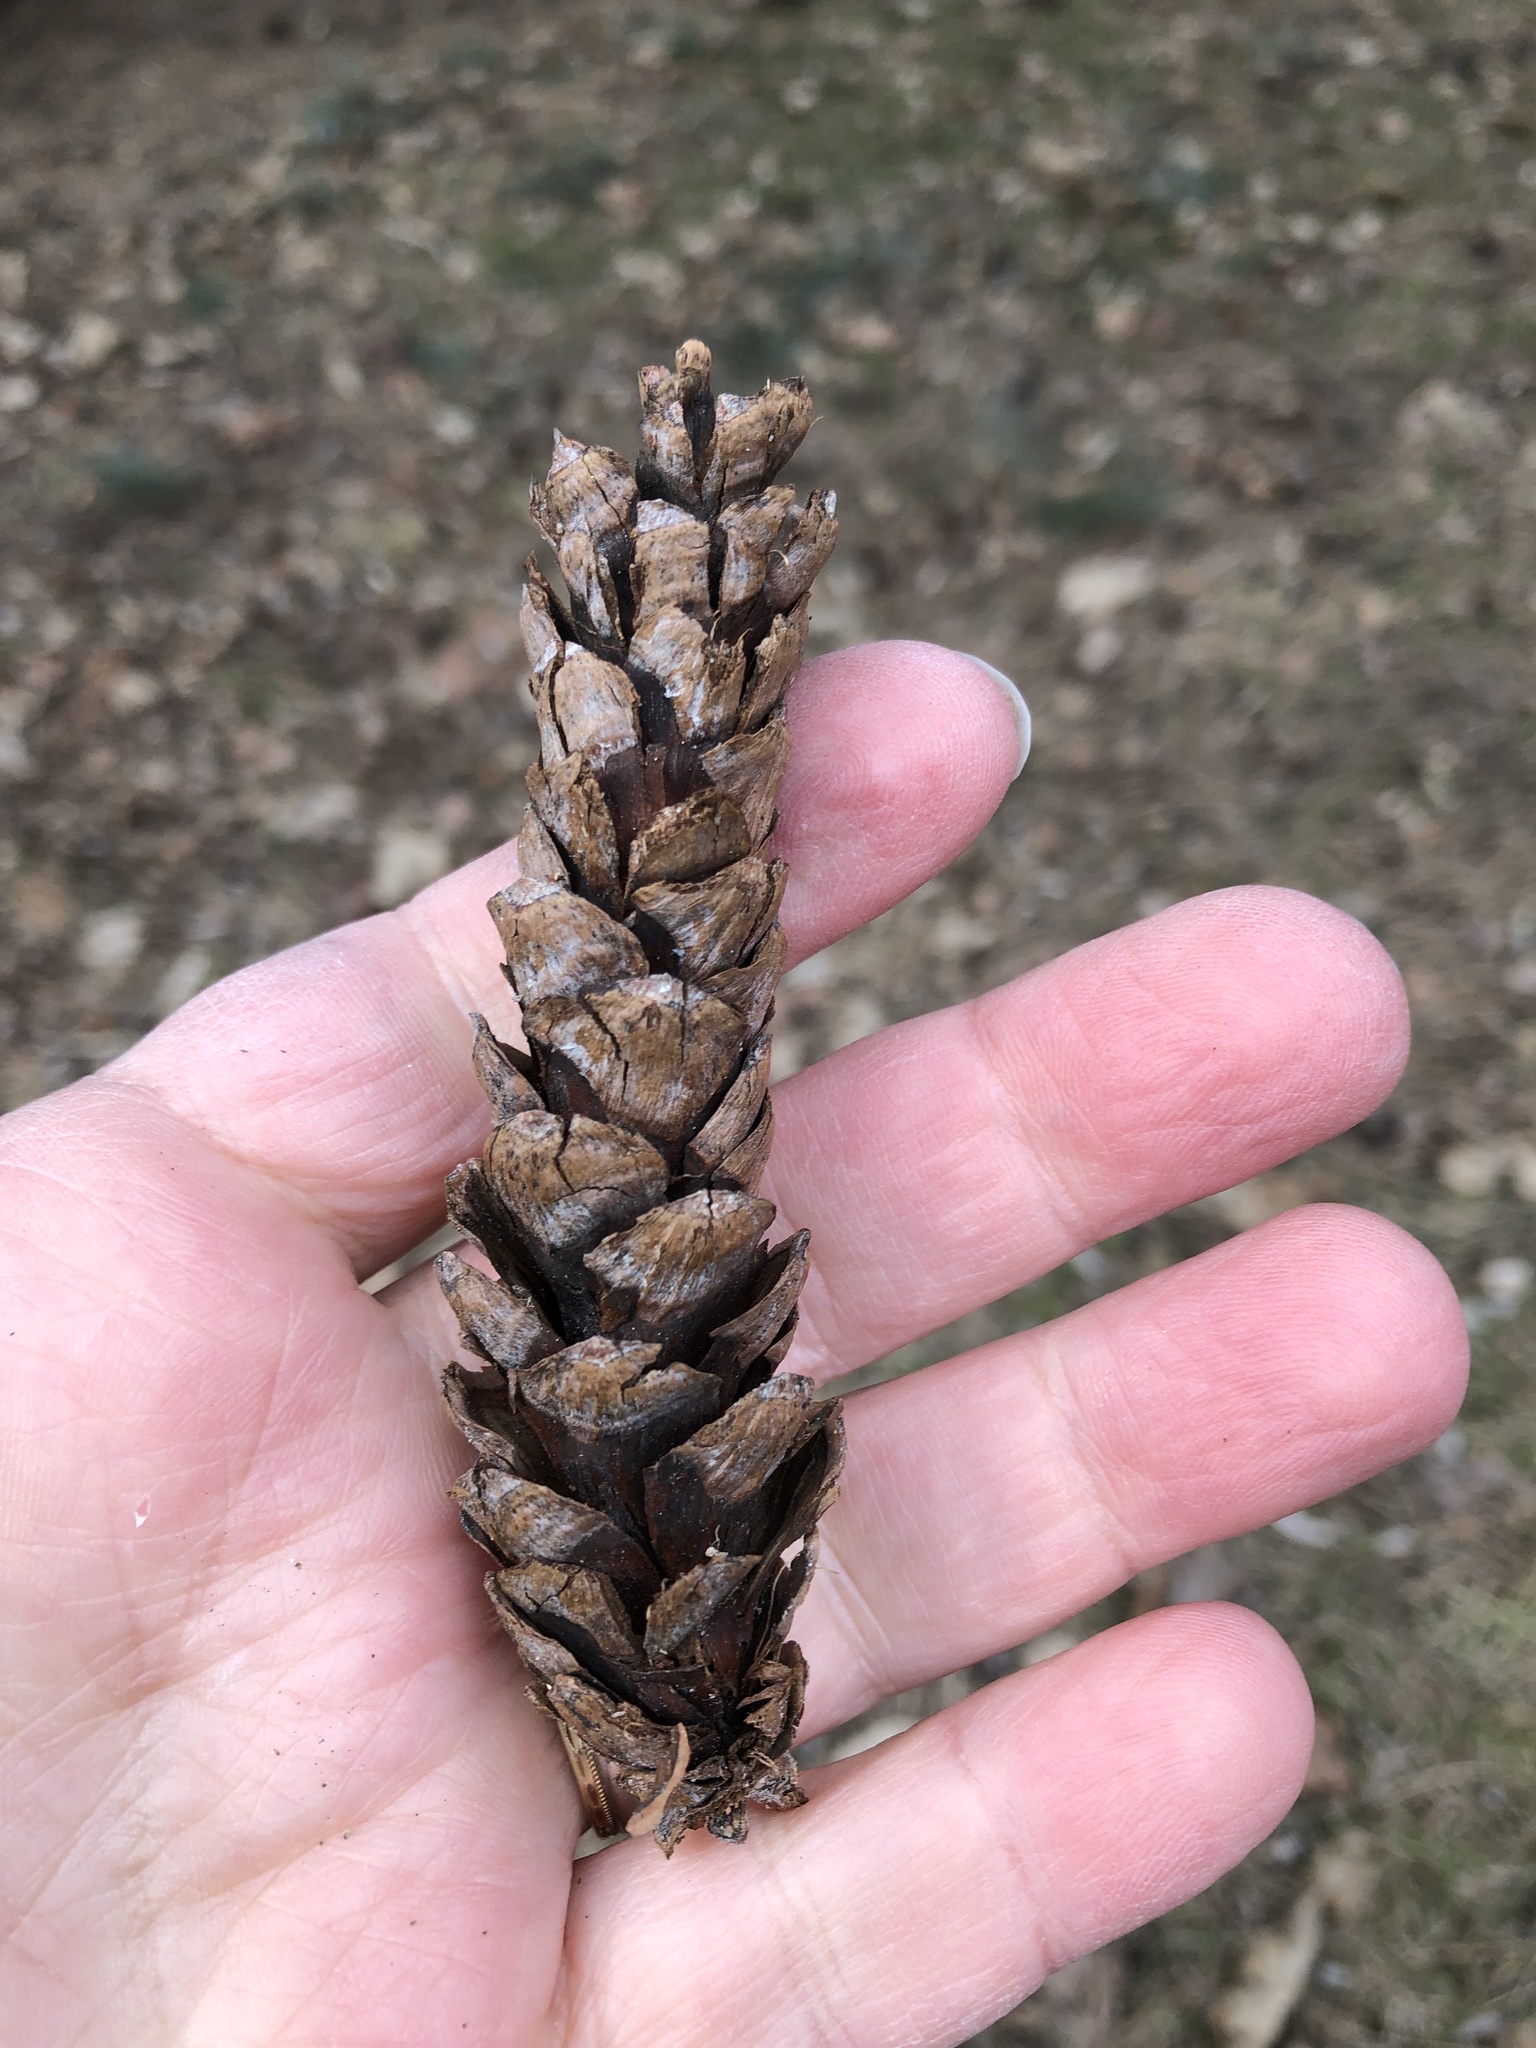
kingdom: Plantae
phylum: Tracheophyta
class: Pinopsida
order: Pinales
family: Pinaceae
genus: Pinus
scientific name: Pinus strobus
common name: Weymouth pine
